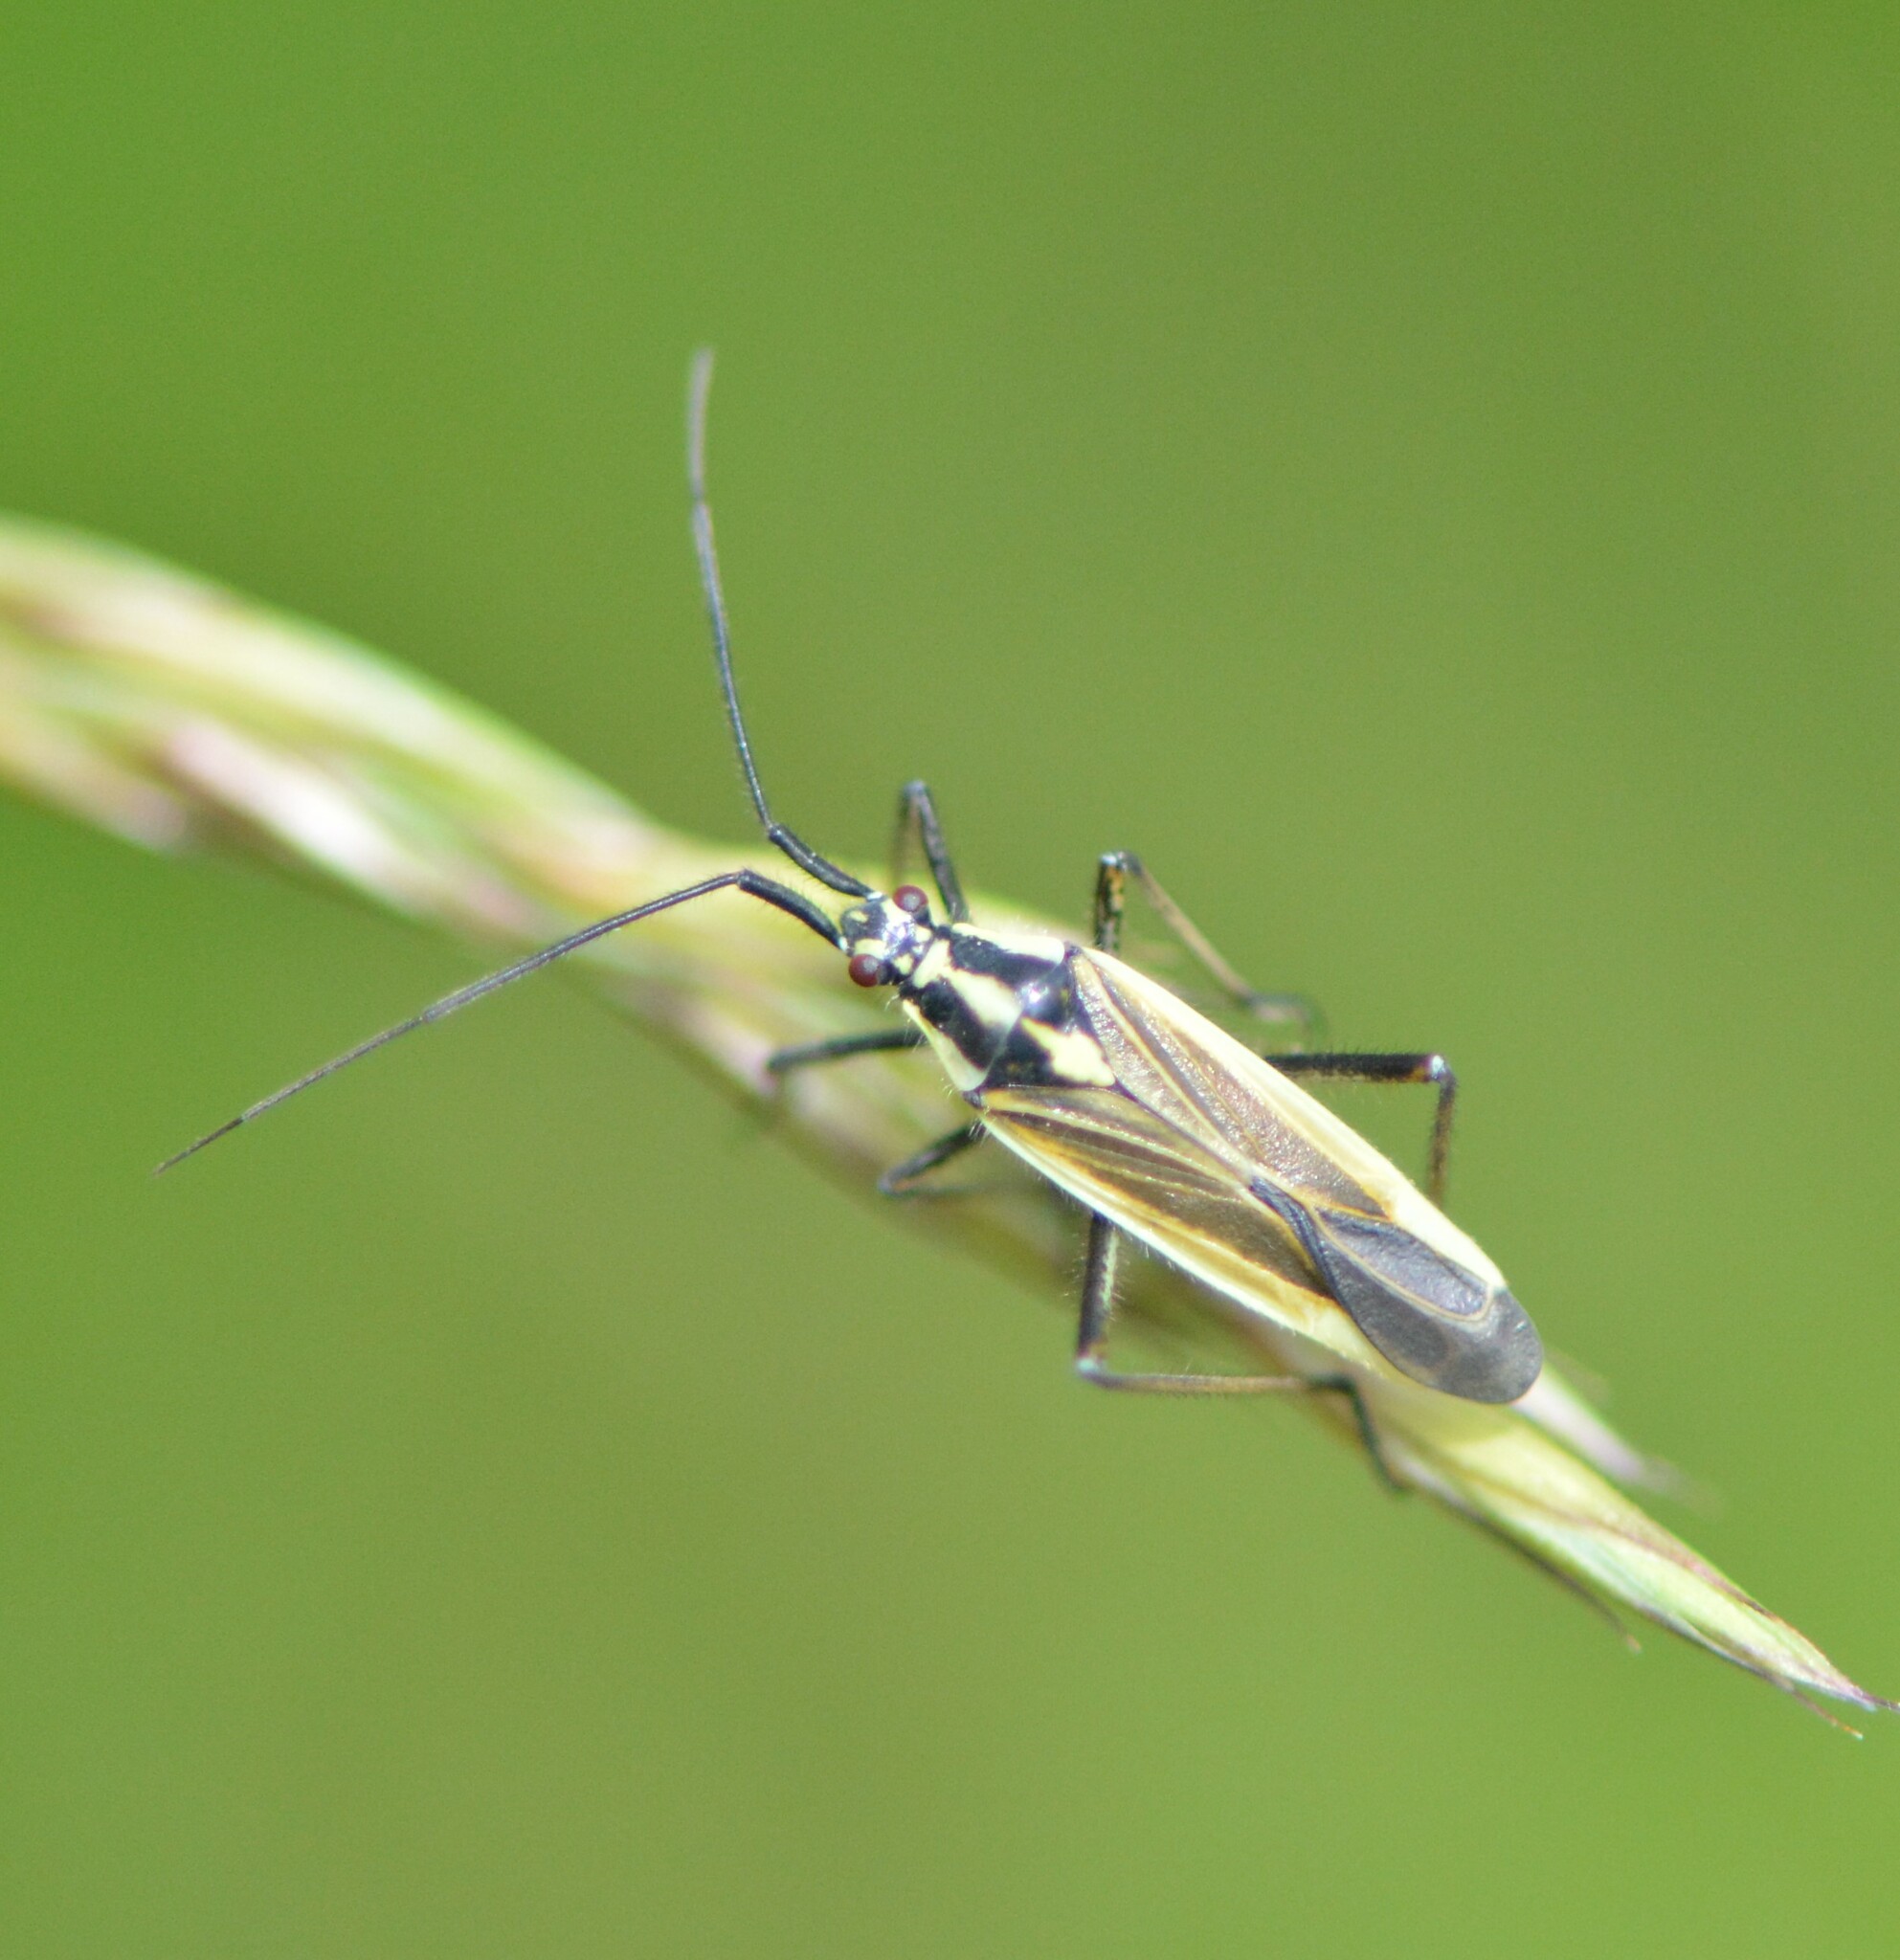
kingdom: Animalia
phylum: Arthropoda
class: Insecta
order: Hemiptera
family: Miridae
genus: Leptopterna
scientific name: Leptopterna dolabrata
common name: Meadow plant bug
